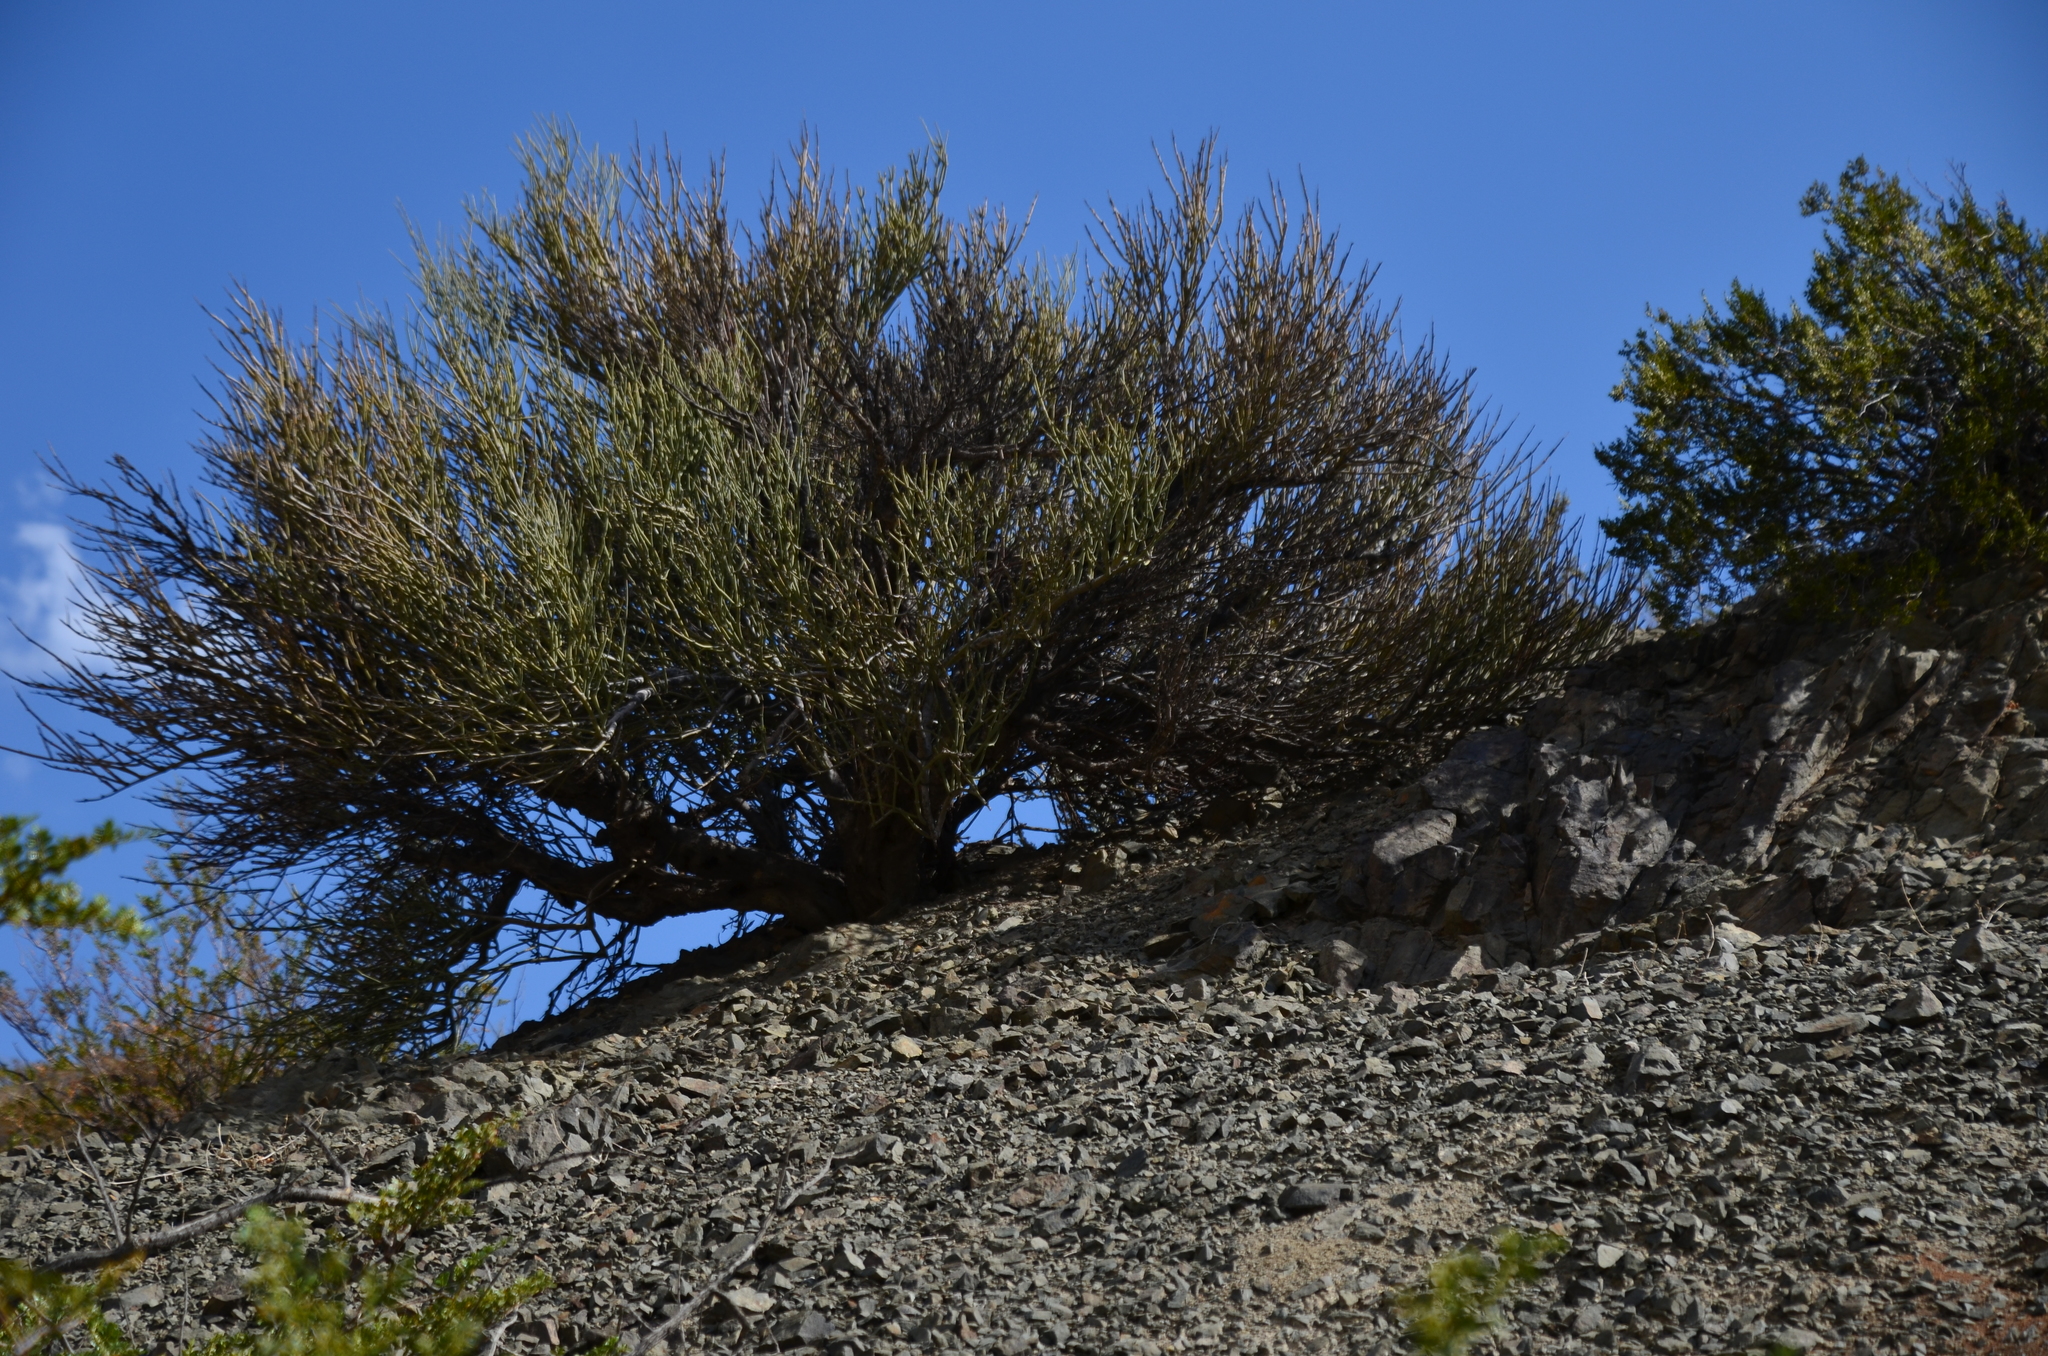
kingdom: Plantae
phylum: Tracheophyta
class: Magnoliopsida
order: Zygophyllales
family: Zygophyllaceae
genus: Bulnesia
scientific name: Bulnesia retama
